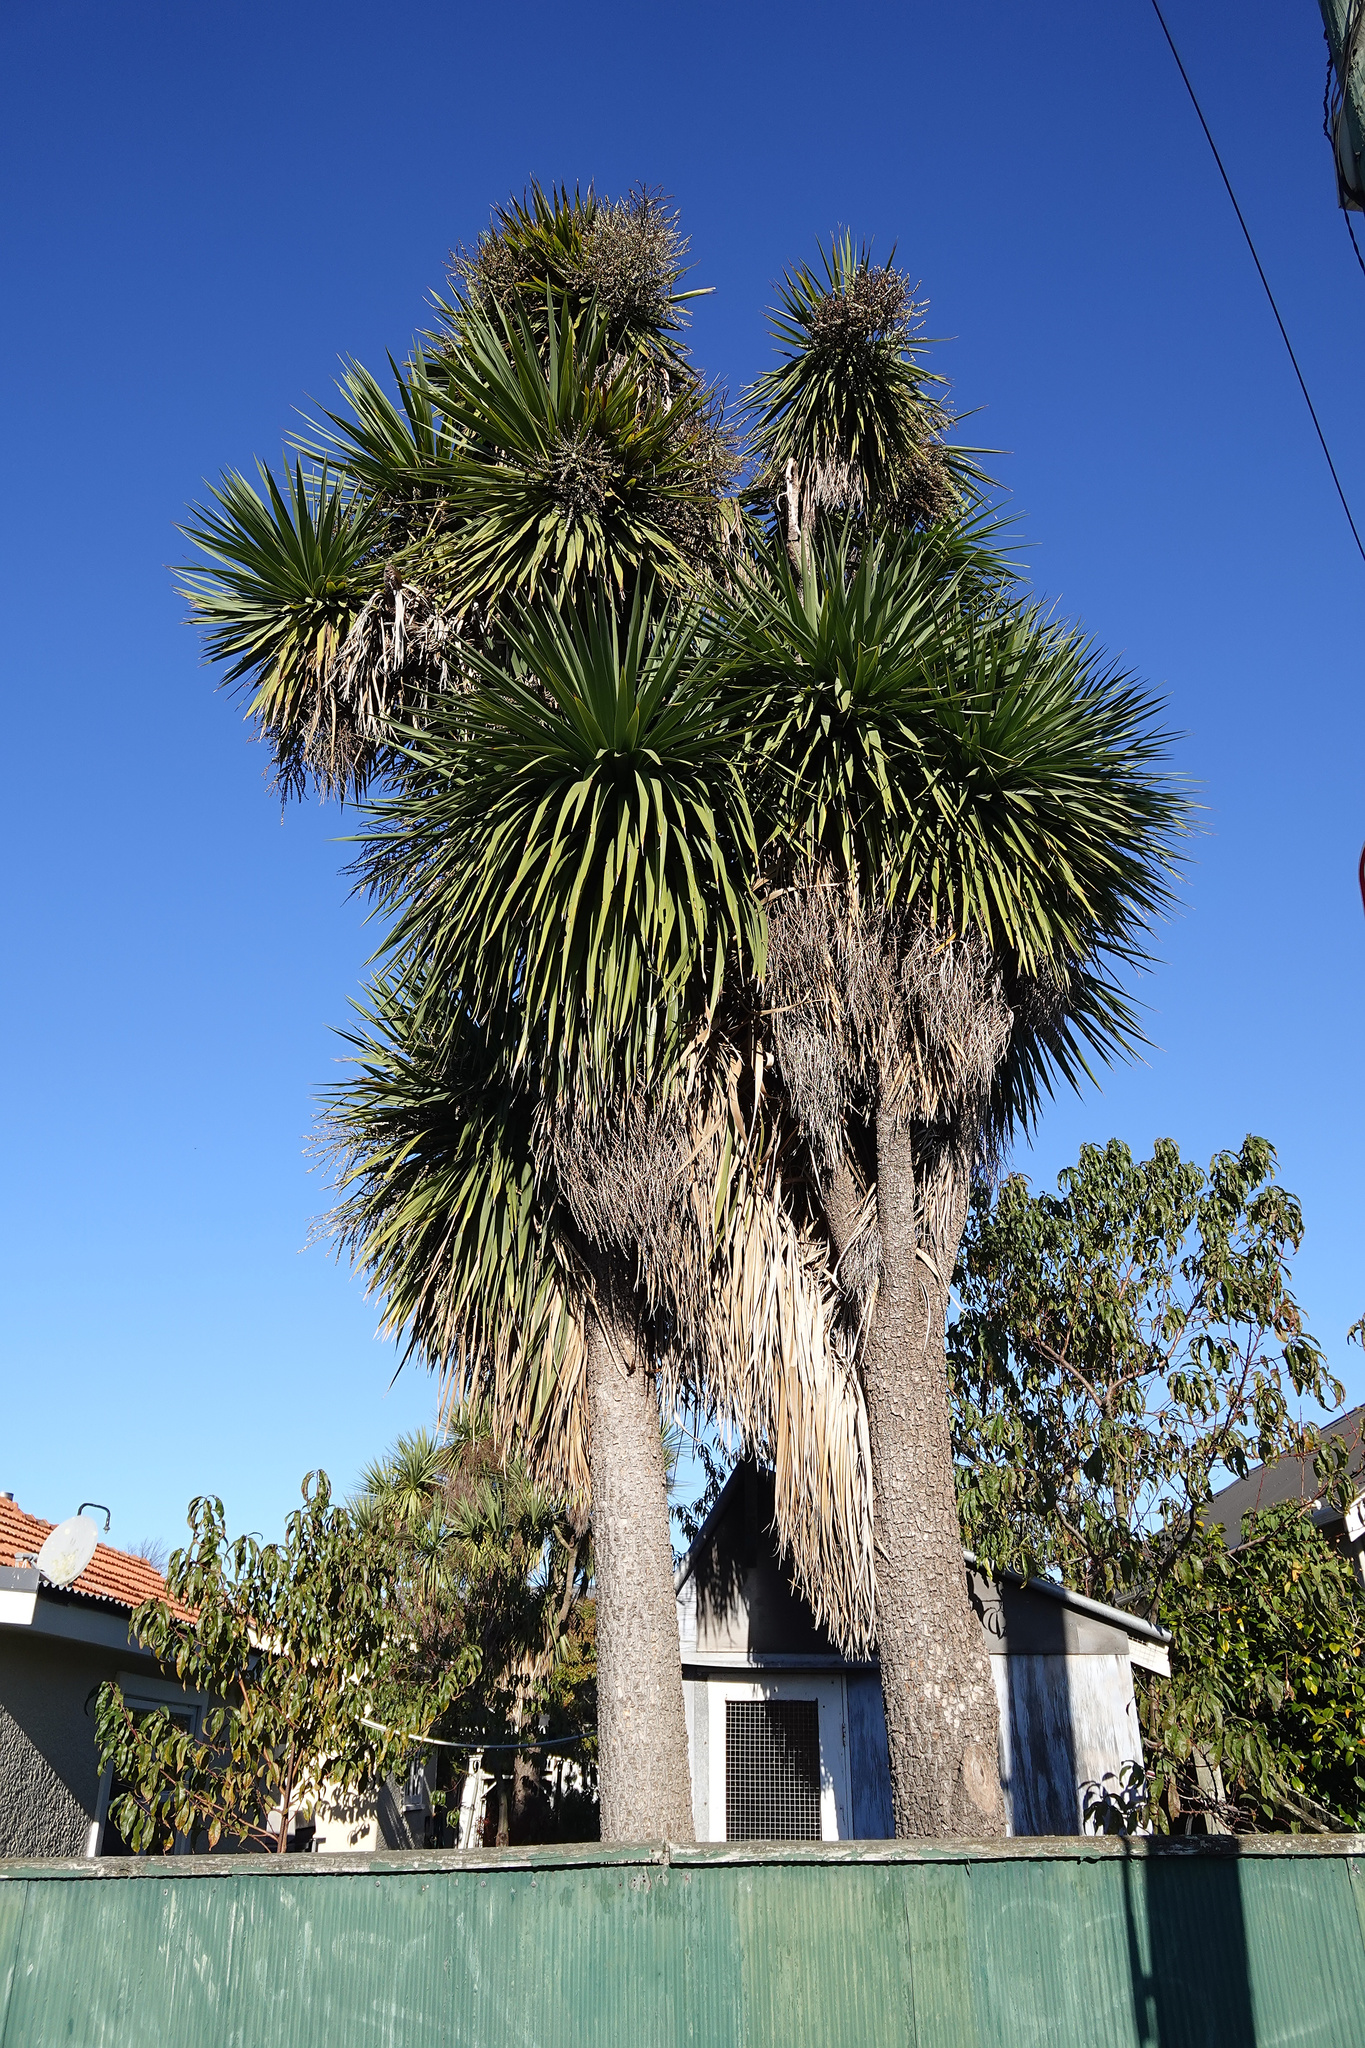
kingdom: Plantae
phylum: Tracheophyta
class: Liliopsida
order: Asparagales
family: Asparagaceae
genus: Cordyline
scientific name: Cordyline australis
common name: Cabbage-palm
